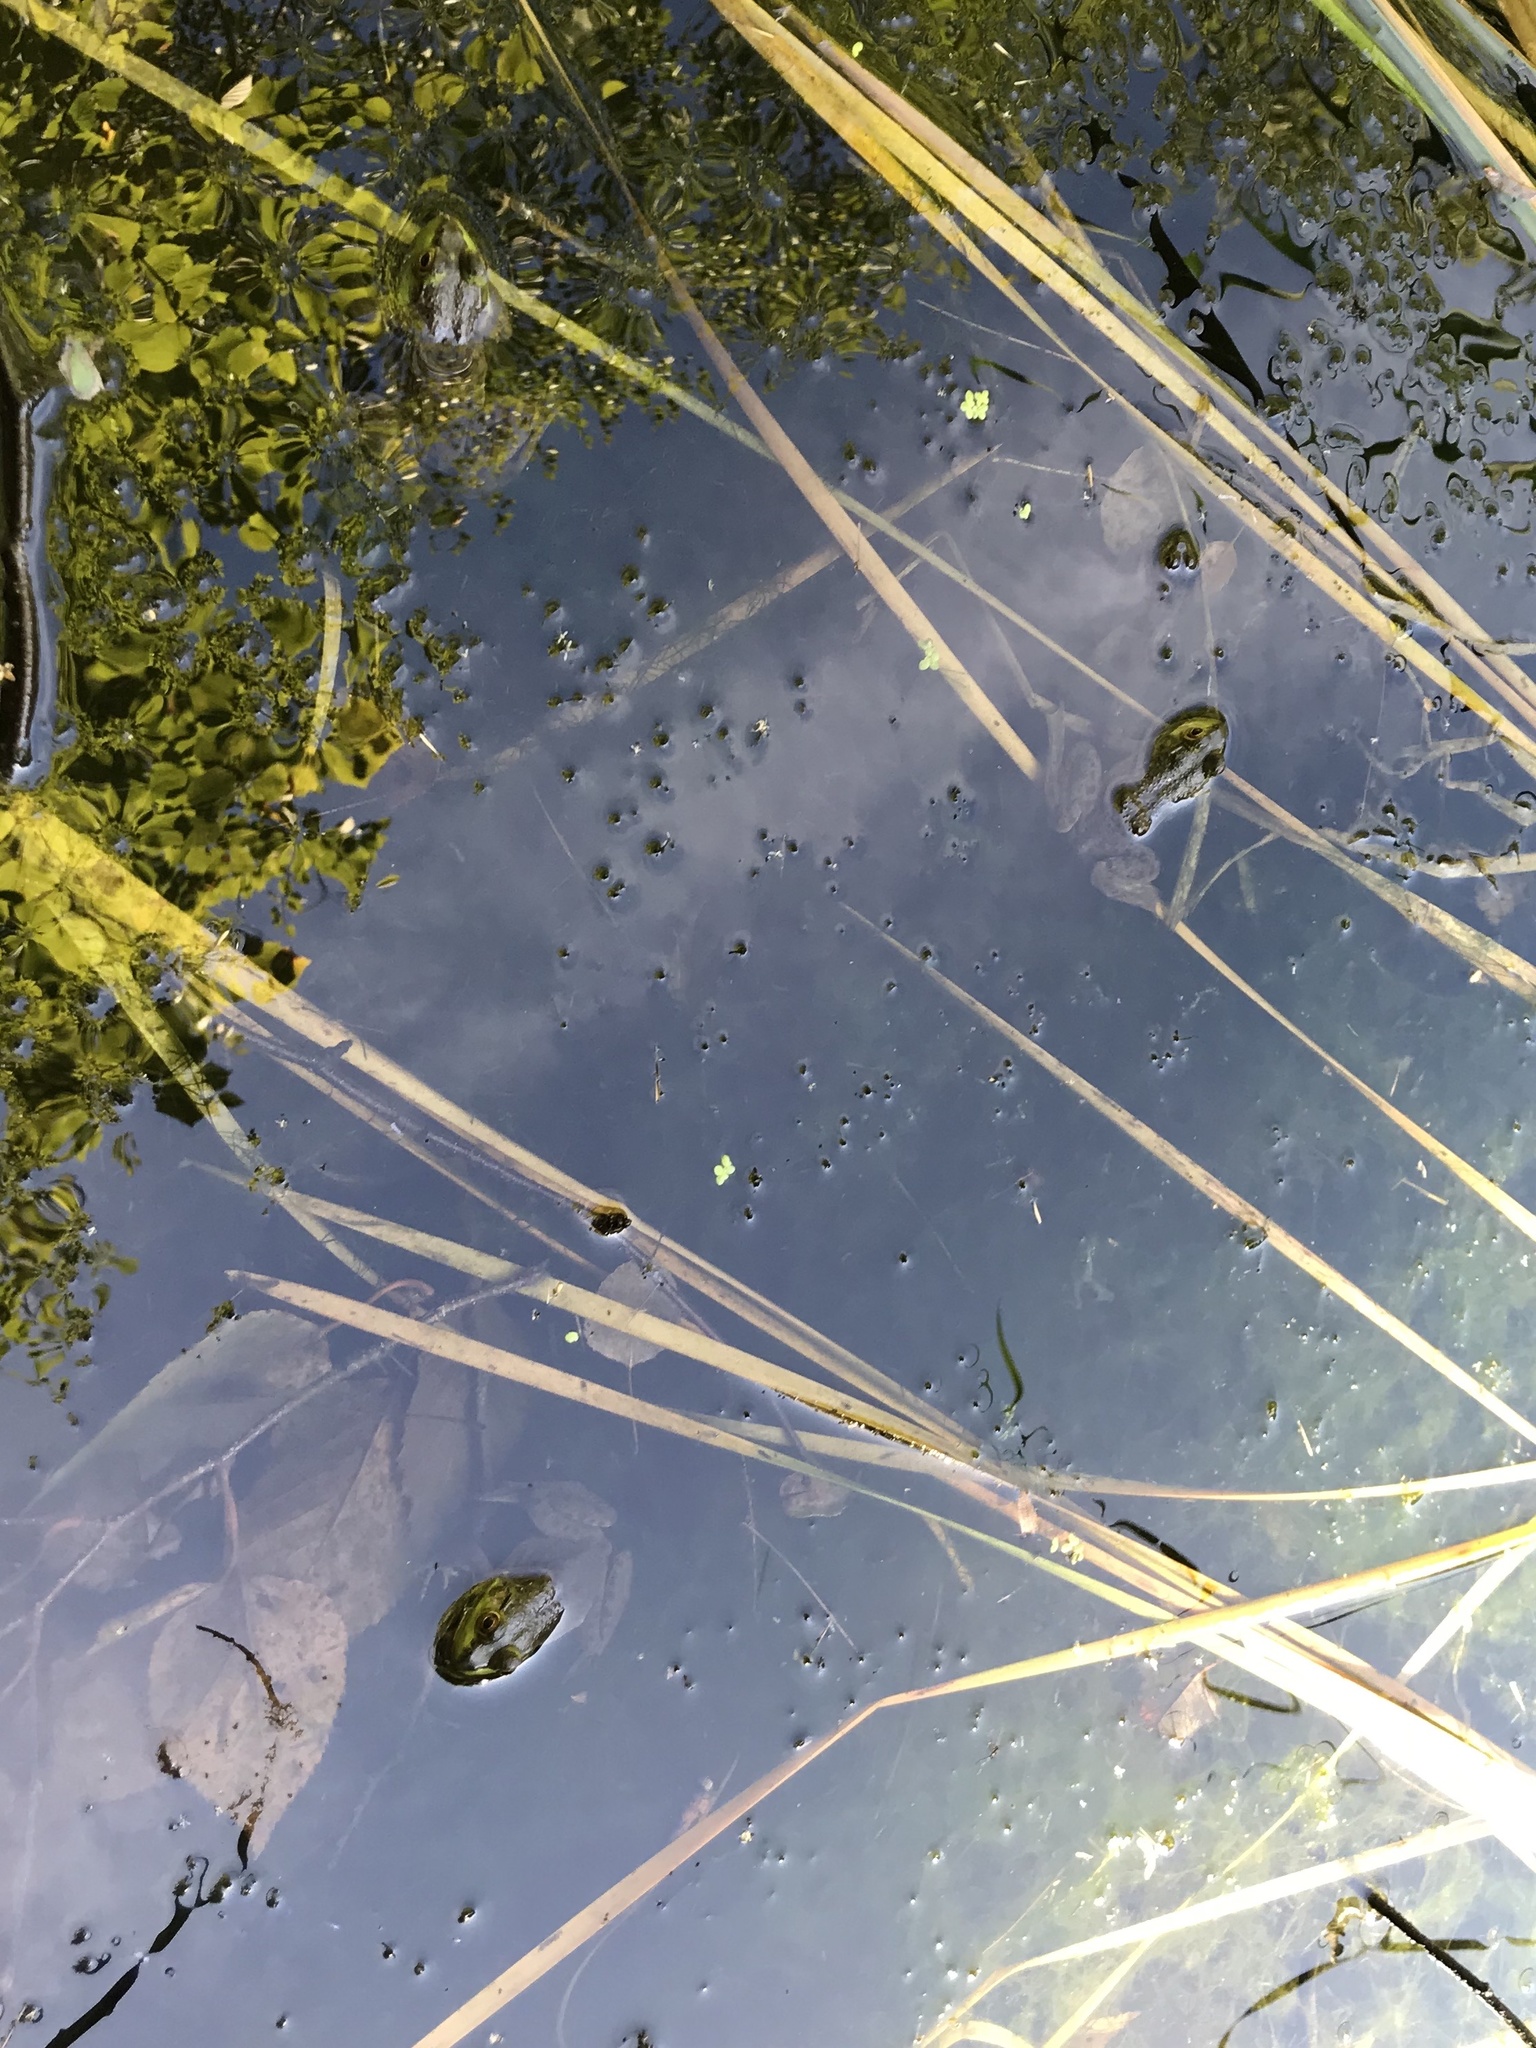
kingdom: Animalia
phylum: Chordata
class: Amphibia
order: Anura
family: Ranidae
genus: Lithobates
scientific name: Lithobates catesbeianus
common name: American bullfrog
